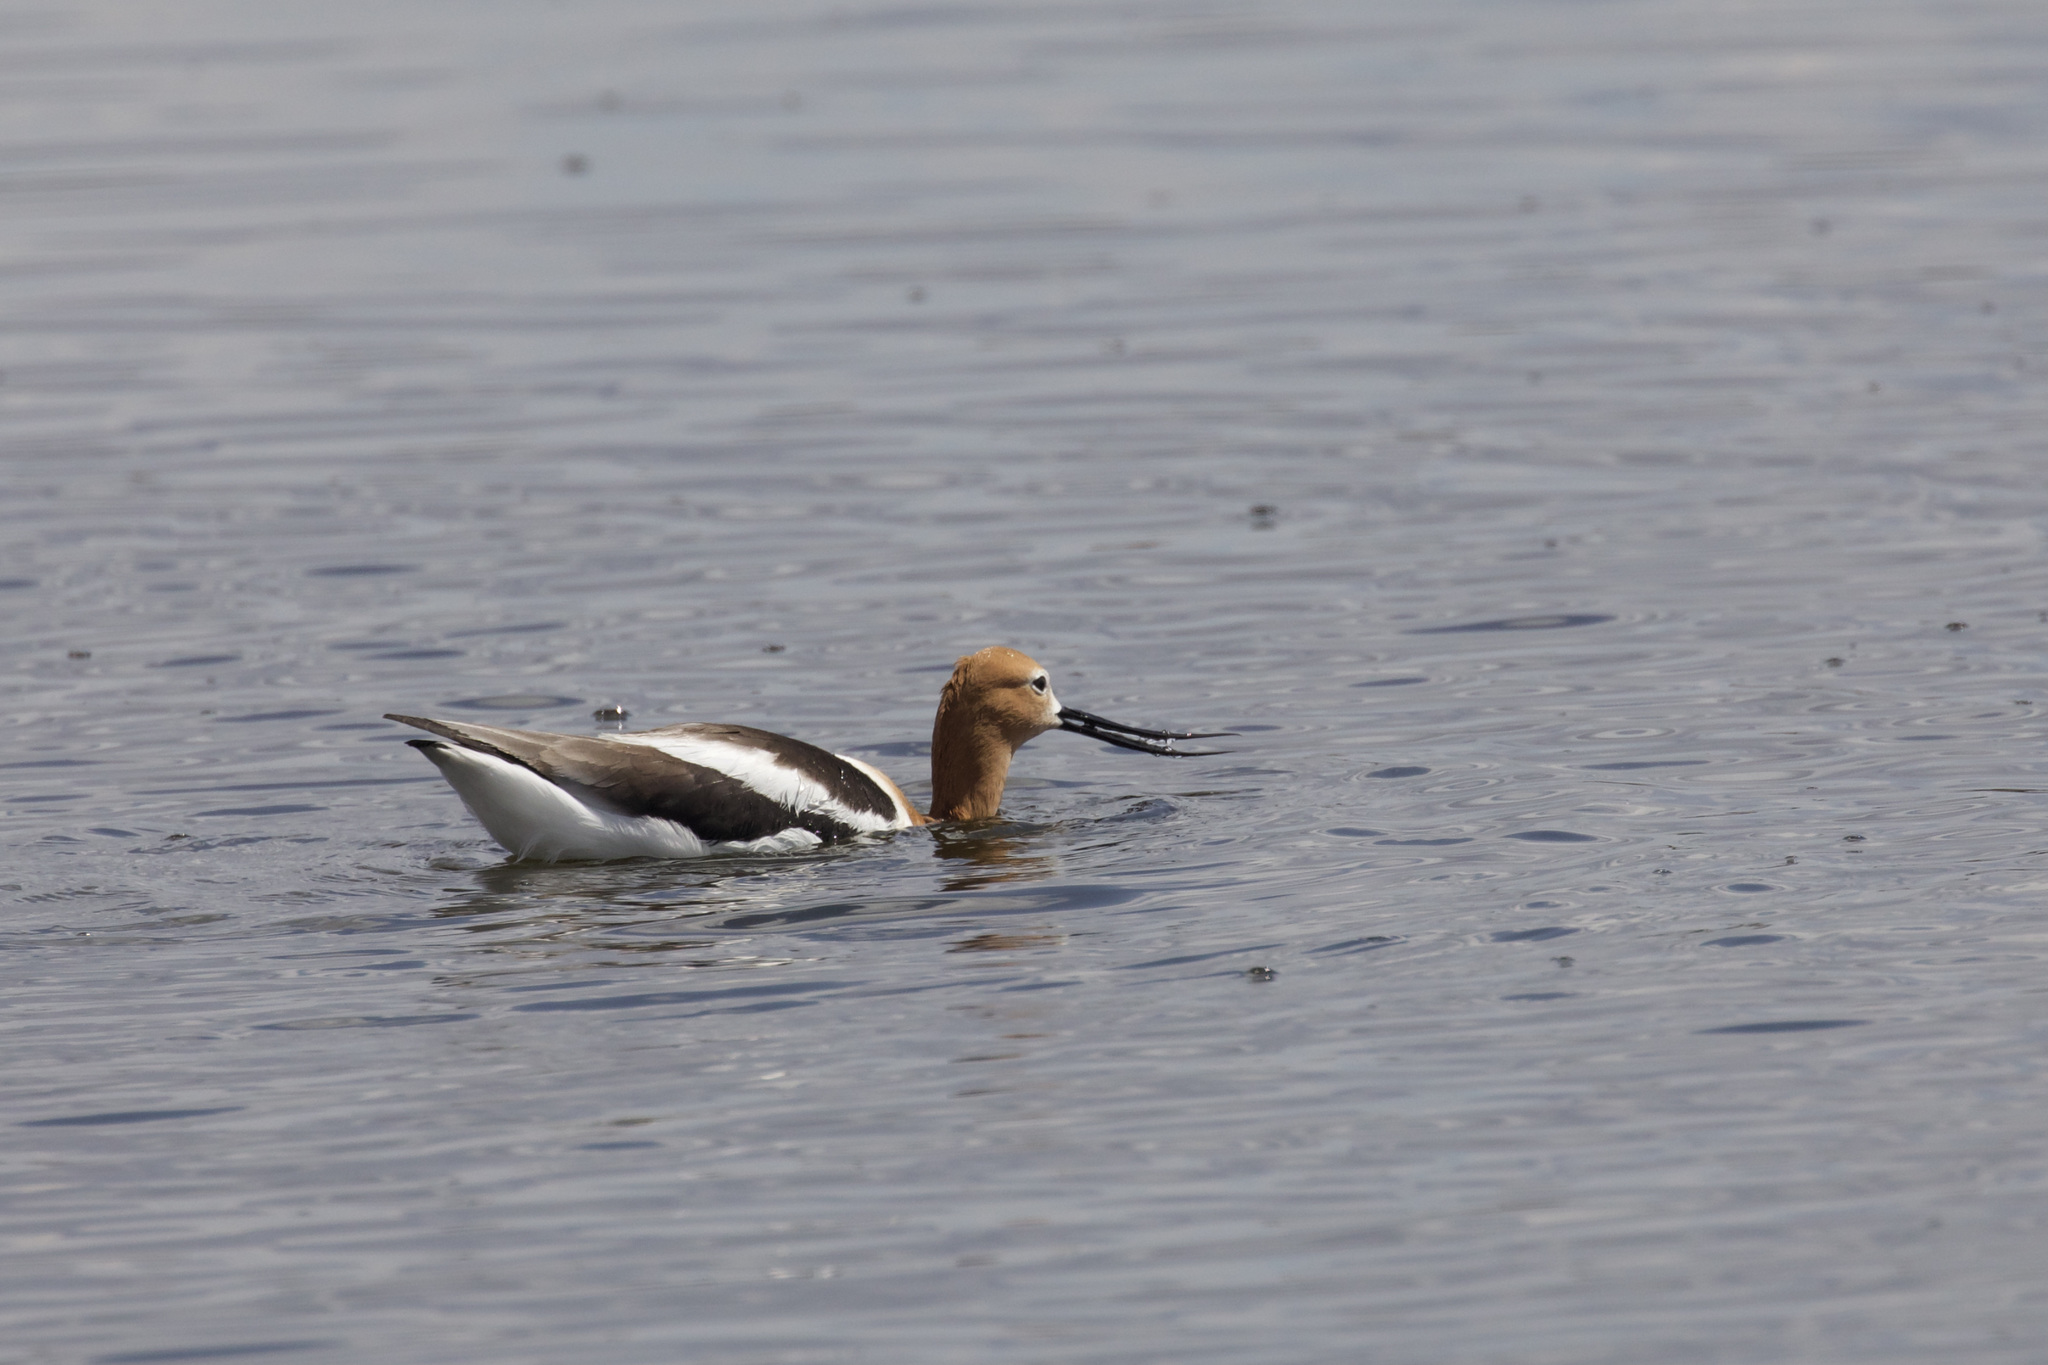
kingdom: Animalia
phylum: Chordata
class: Aves
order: Charadriiformes
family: Recurvirostridae
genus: Recurvirostra
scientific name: Recurvirostra americana
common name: American avocet
